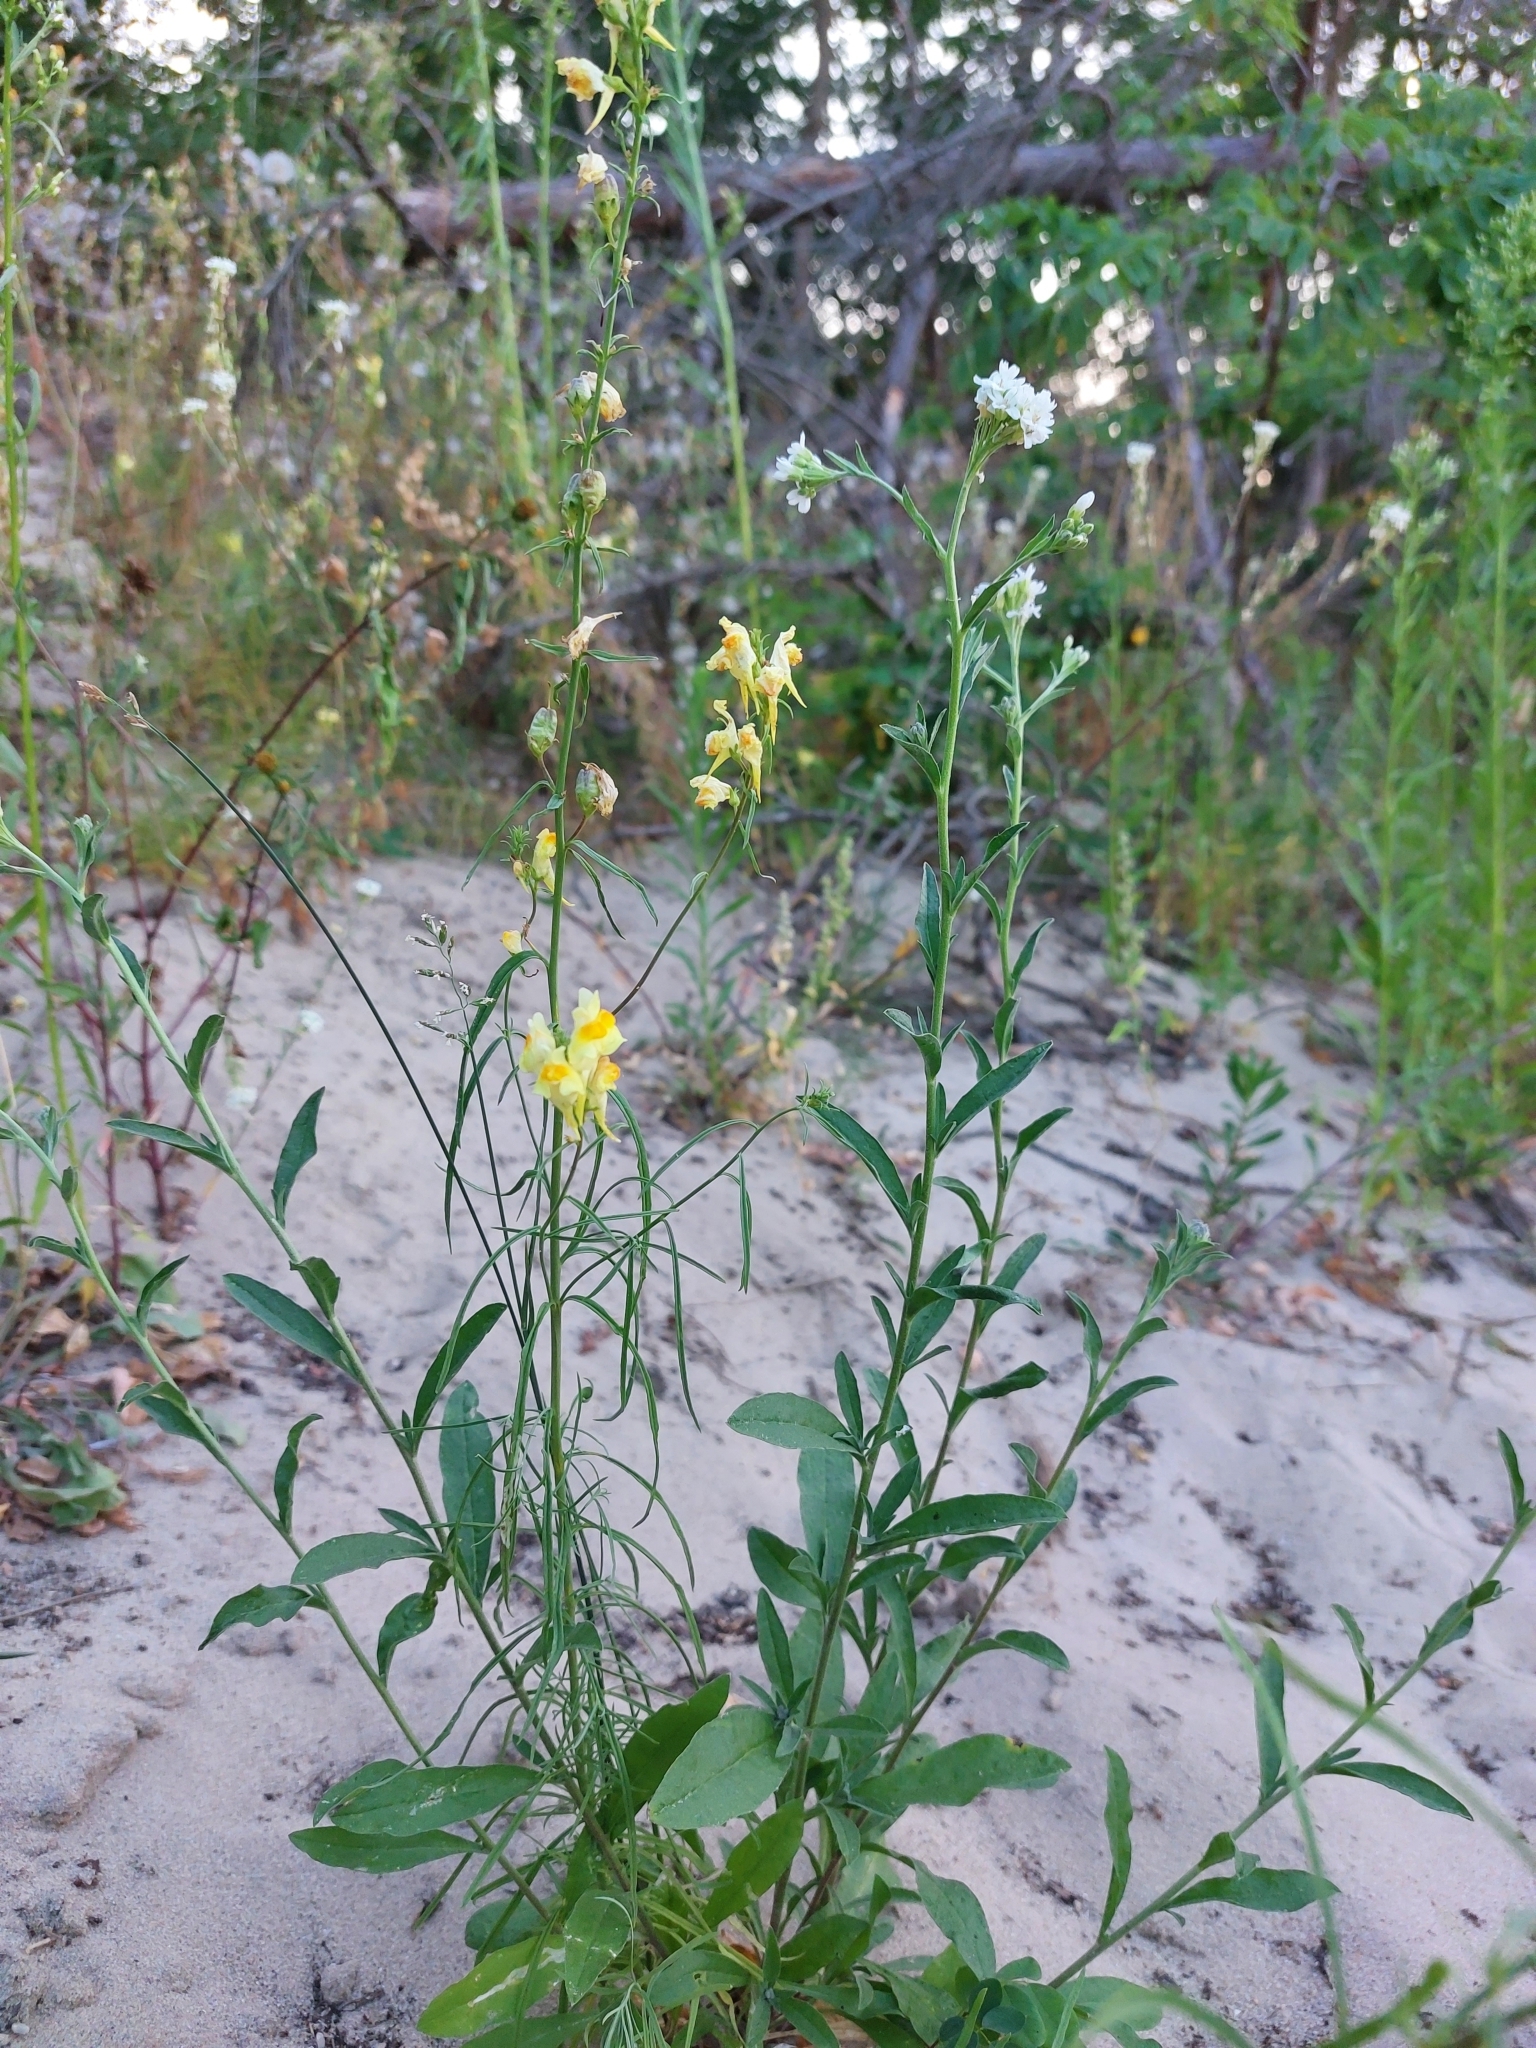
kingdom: Plantae
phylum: Tracheophyta
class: Magnoliopsida
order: Lamiales
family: Plantaginaceae
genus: Linaria
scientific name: Linaria vulgaris
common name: Butter and eggs
